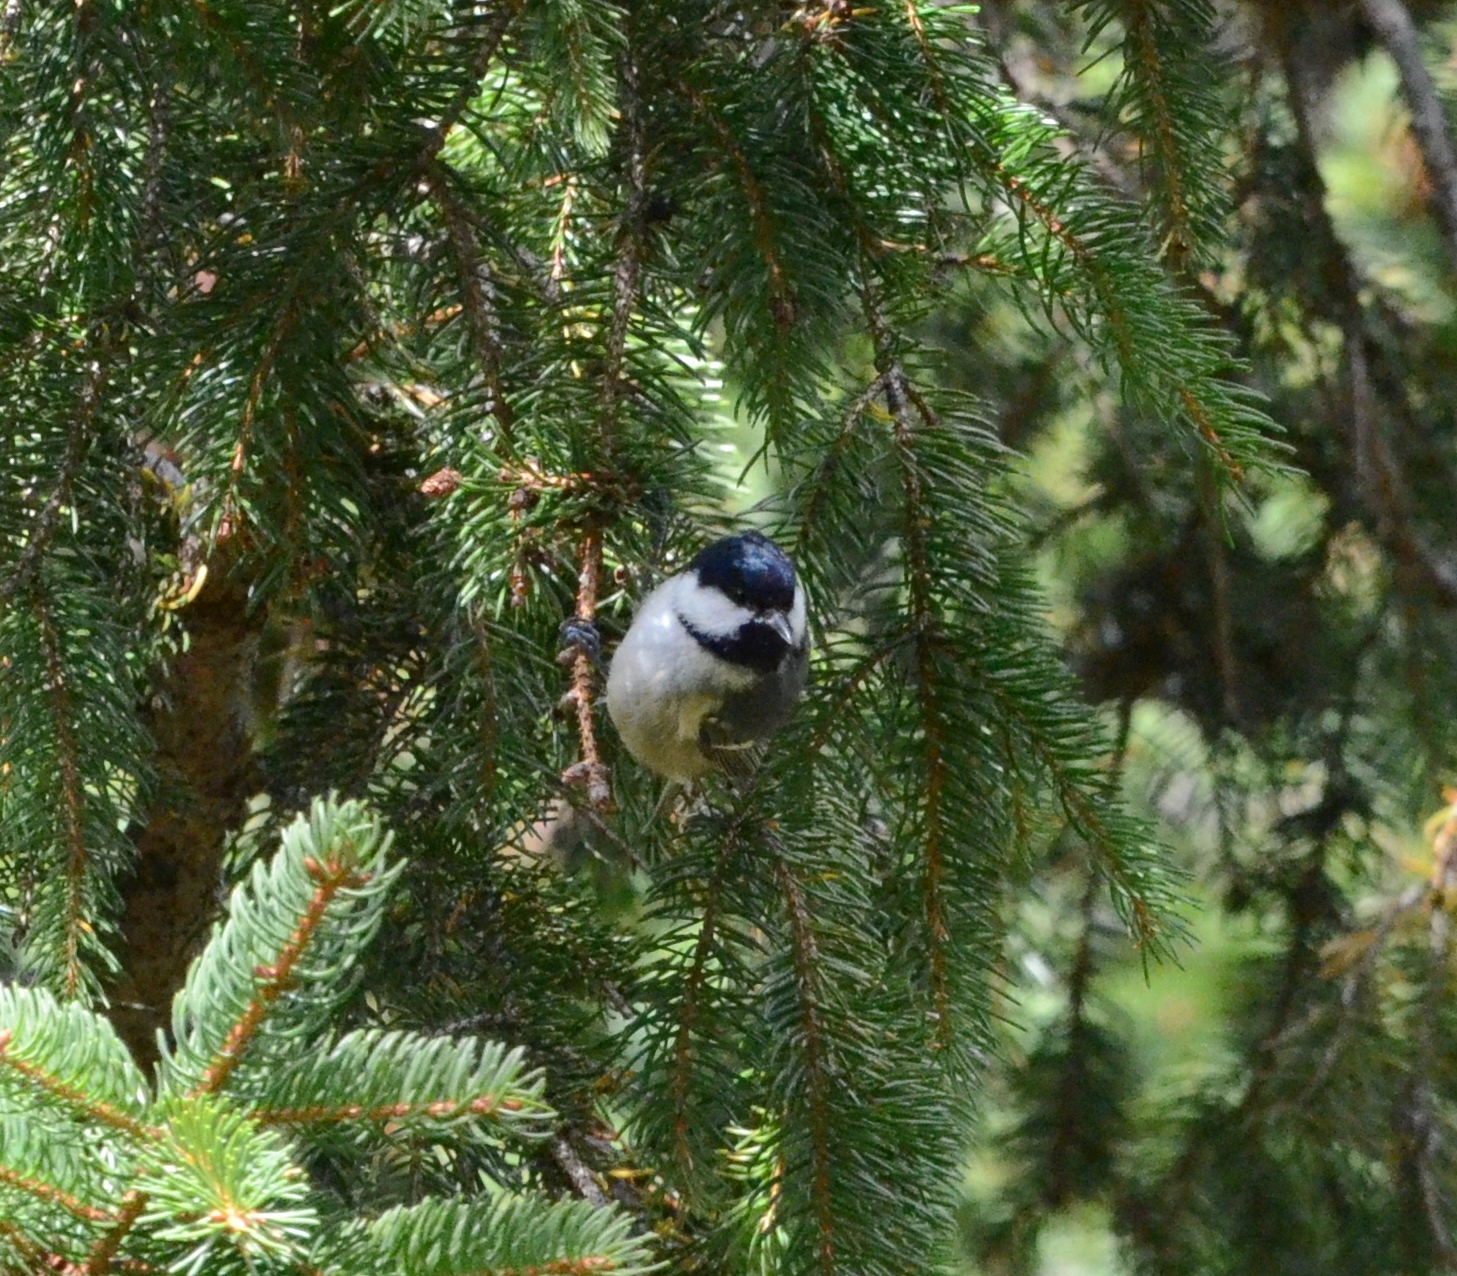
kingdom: Animalia
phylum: Chordata
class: Aves
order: Passeriformes
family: Paridae
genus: Periparus
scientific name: Periparus ater
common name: Coal tit
